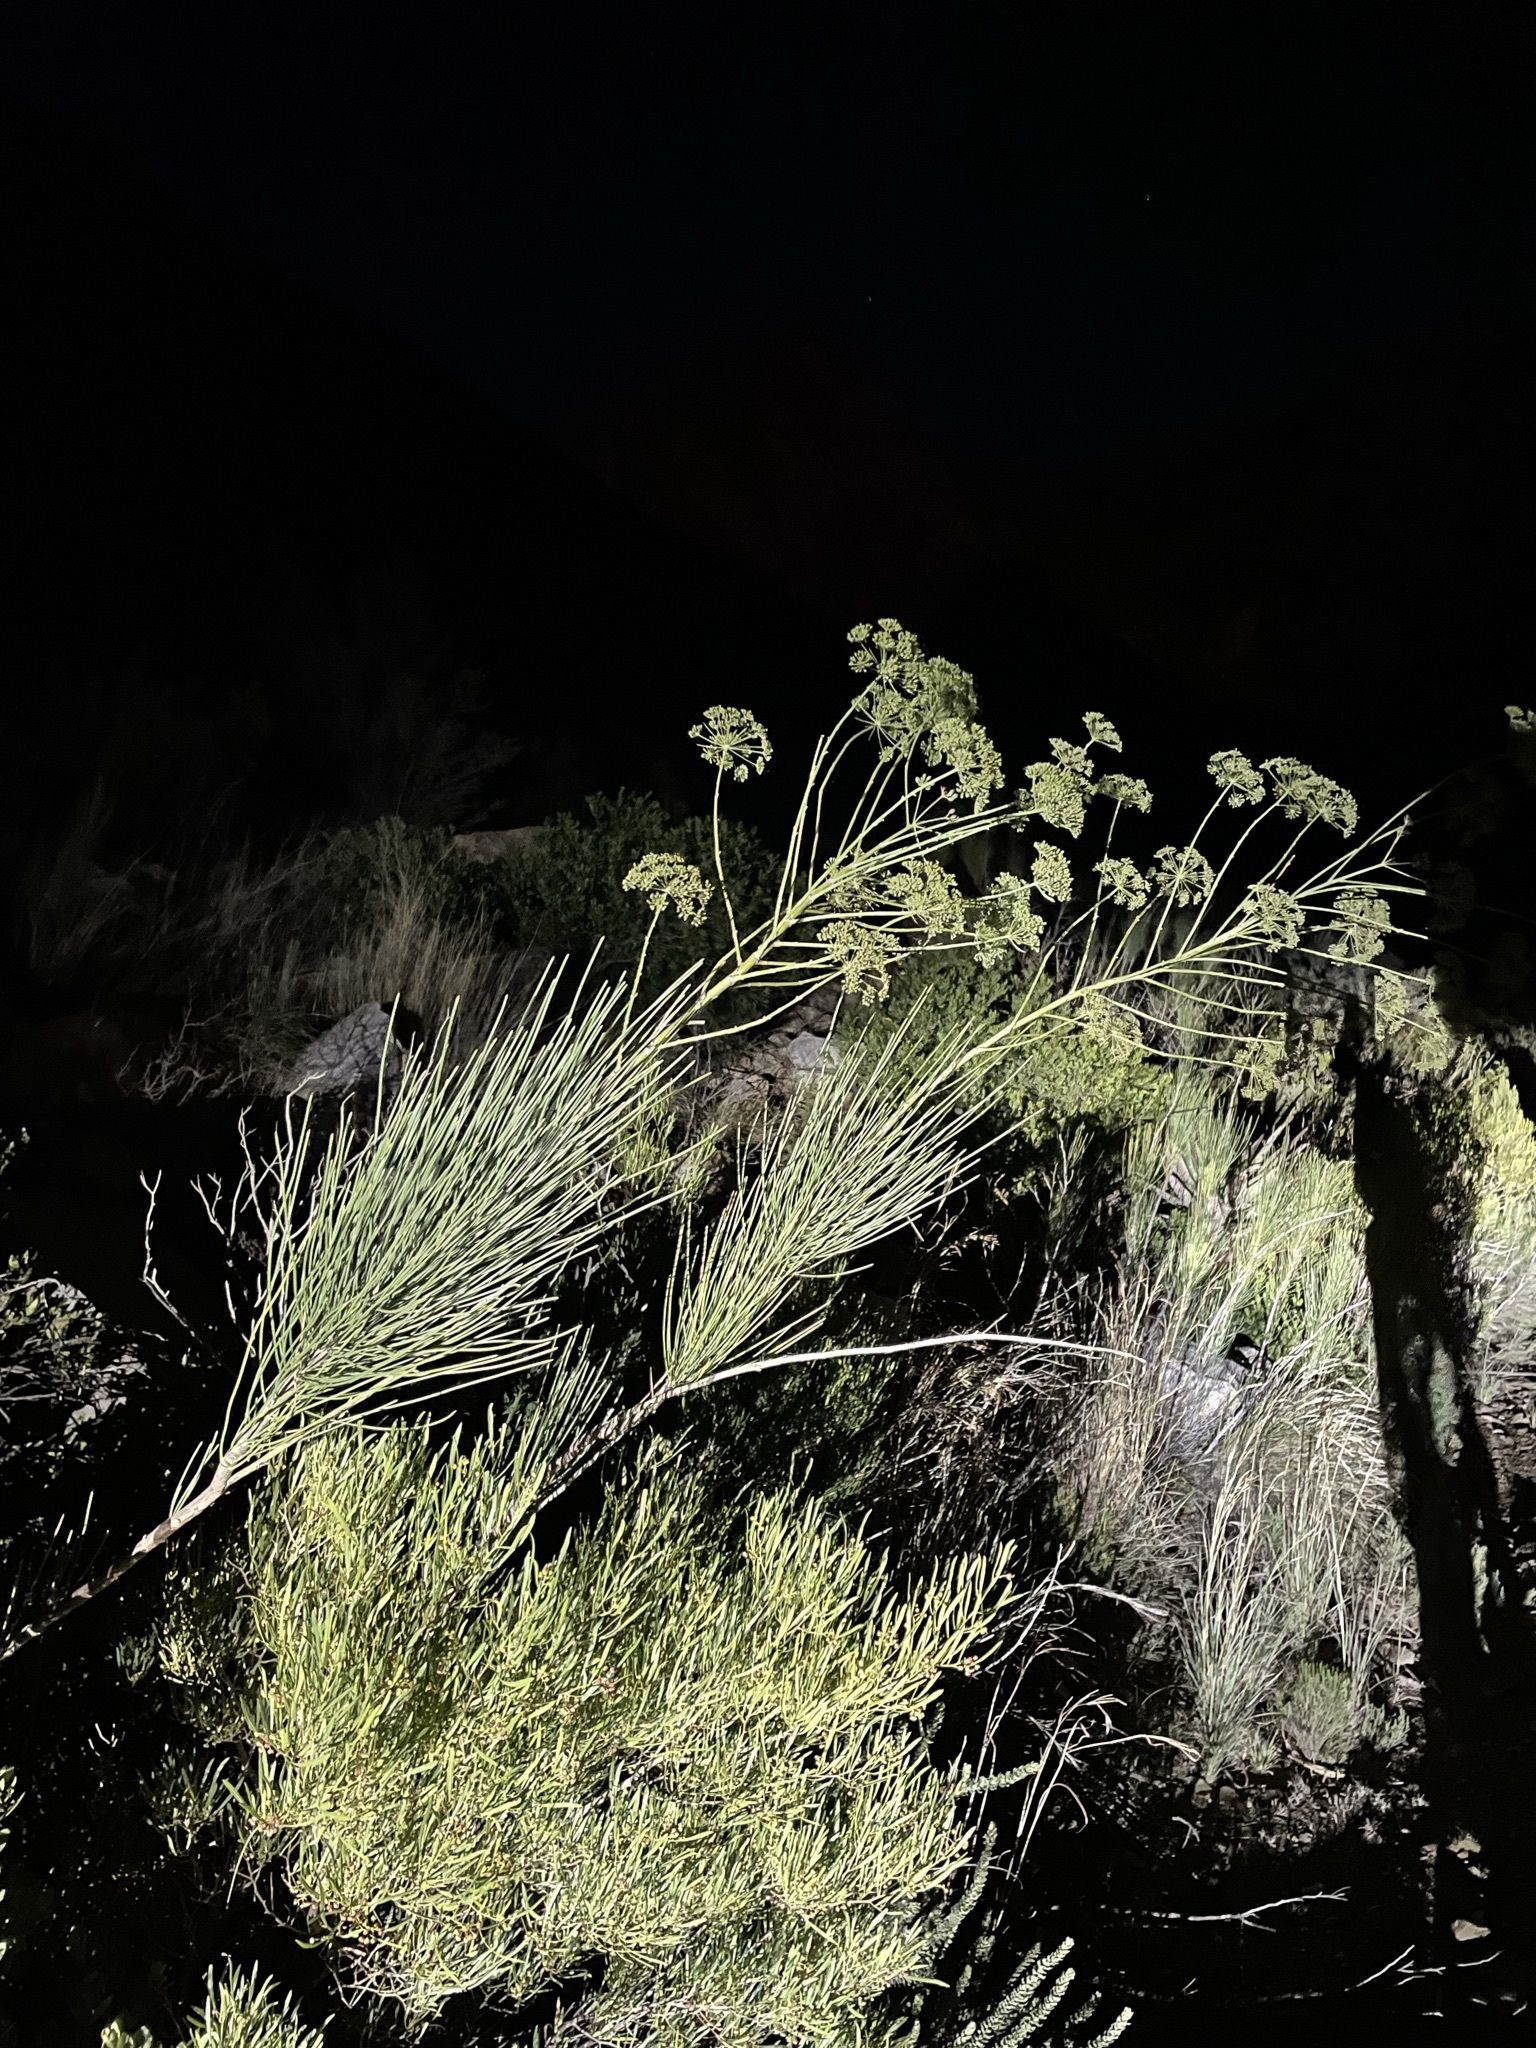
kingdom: Plantae
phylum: Tracheophyta
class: Magnoliopsida
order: Apiales
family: Apiaceae
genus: Anginon
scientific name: Anginon difforme
